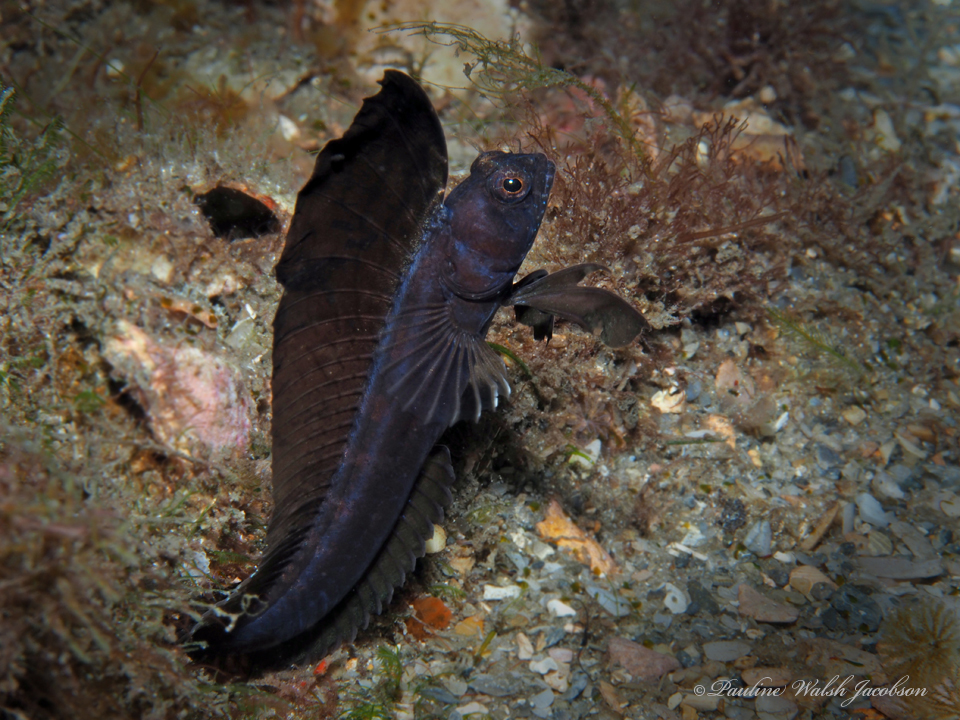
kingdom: Animalia
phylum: Chordata
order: Perciformes
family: Chaenopsidae
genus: Emblemaria
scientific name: Emblemaria pandionis
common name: Sailfin blenny
